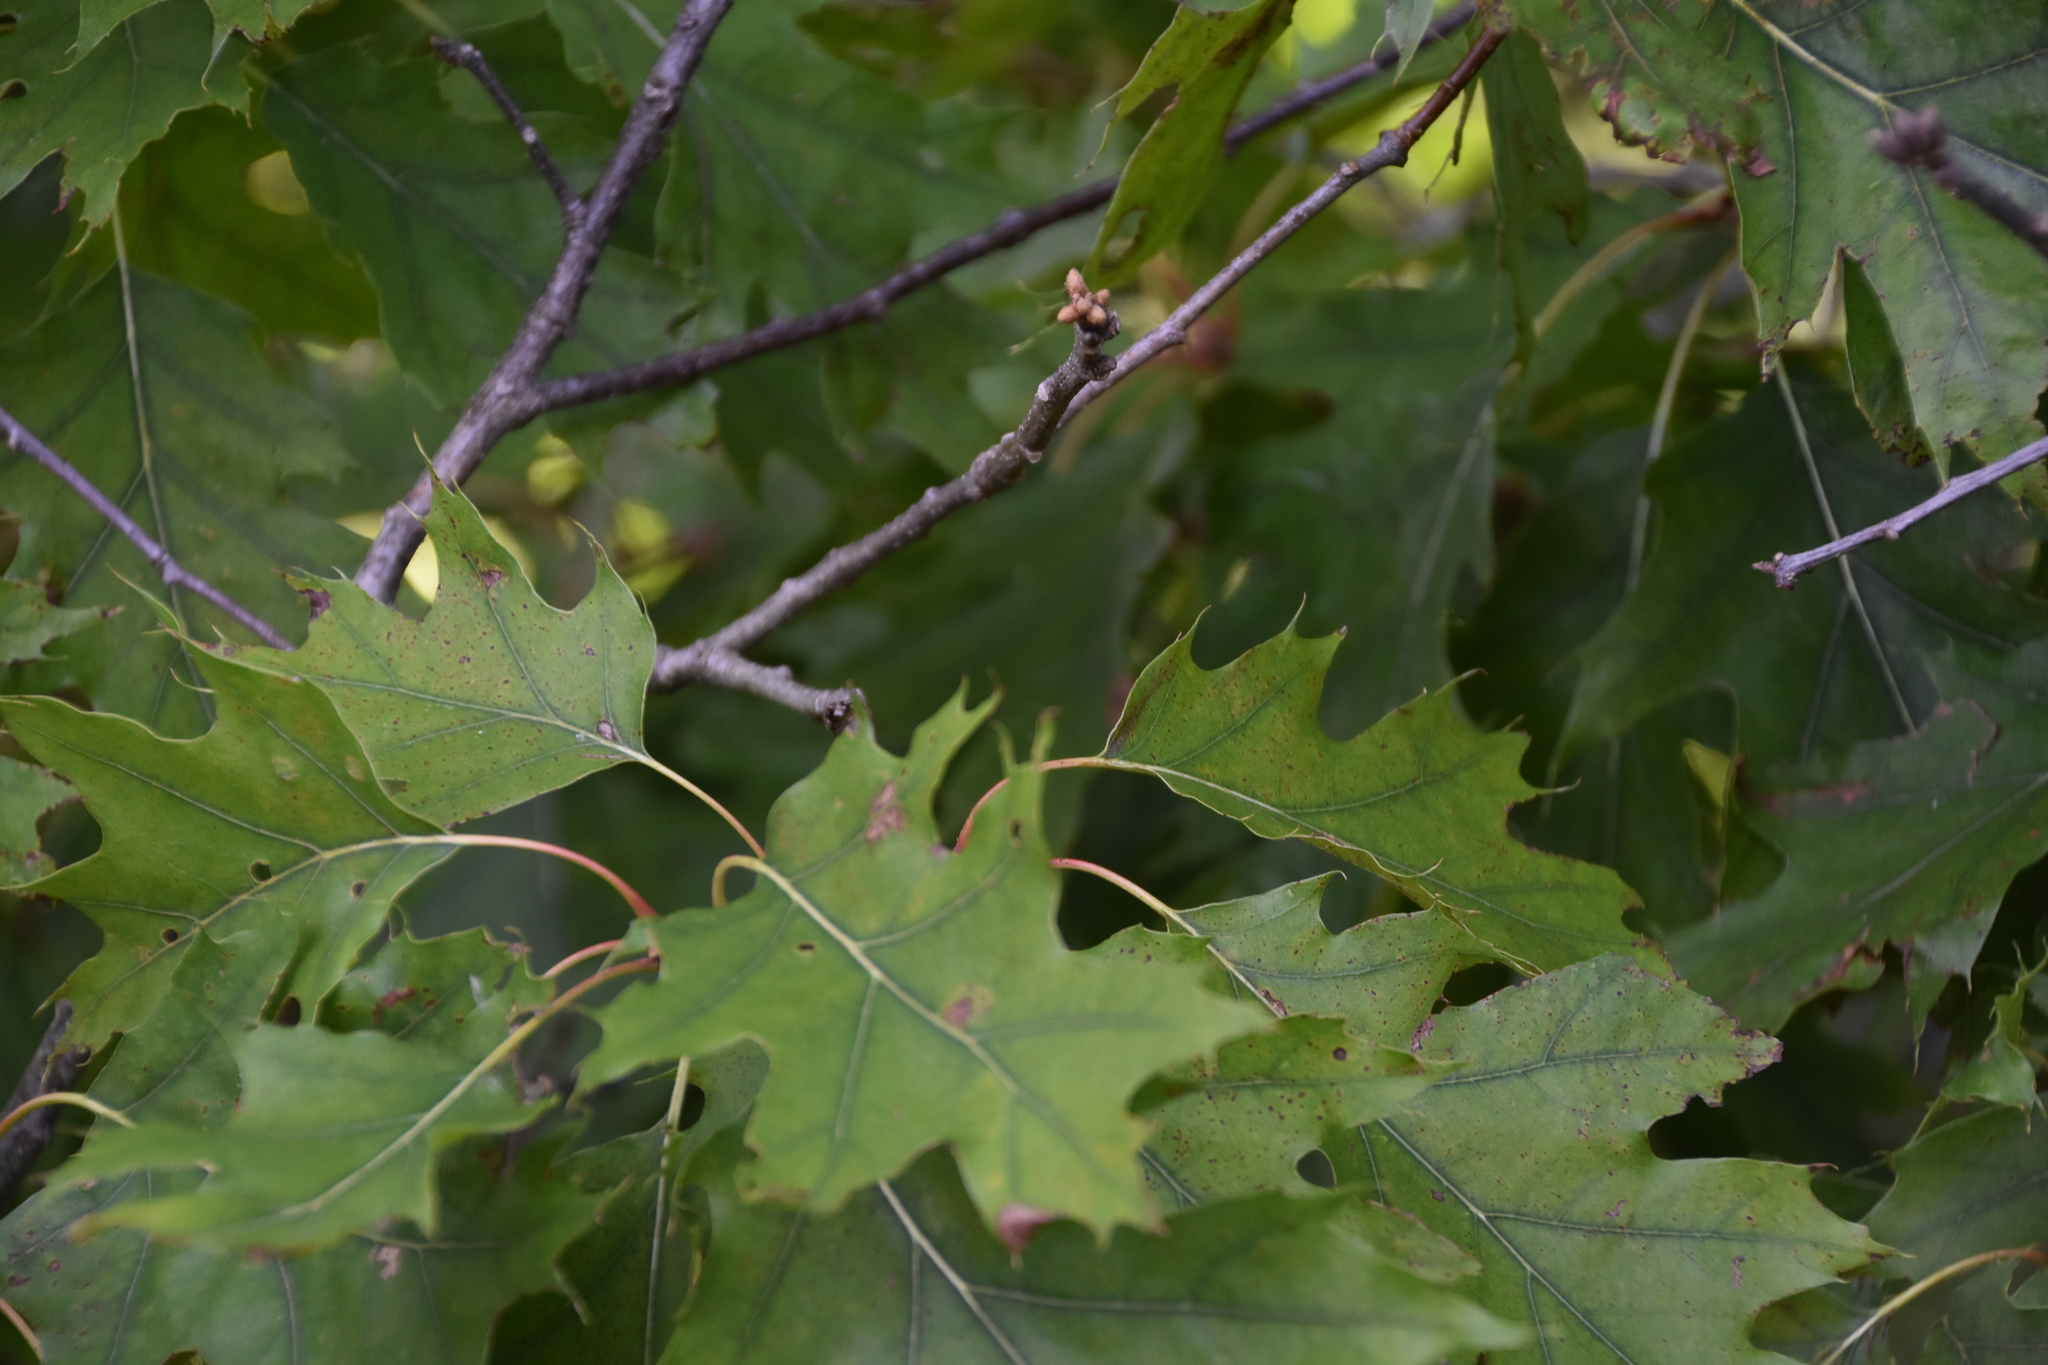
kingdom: Plantae
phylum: Tracheophyta
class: Magnoliopsida
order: Fagales
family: Fagaceae
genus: Quercus
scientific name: Quercus rubra
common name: Red oak
